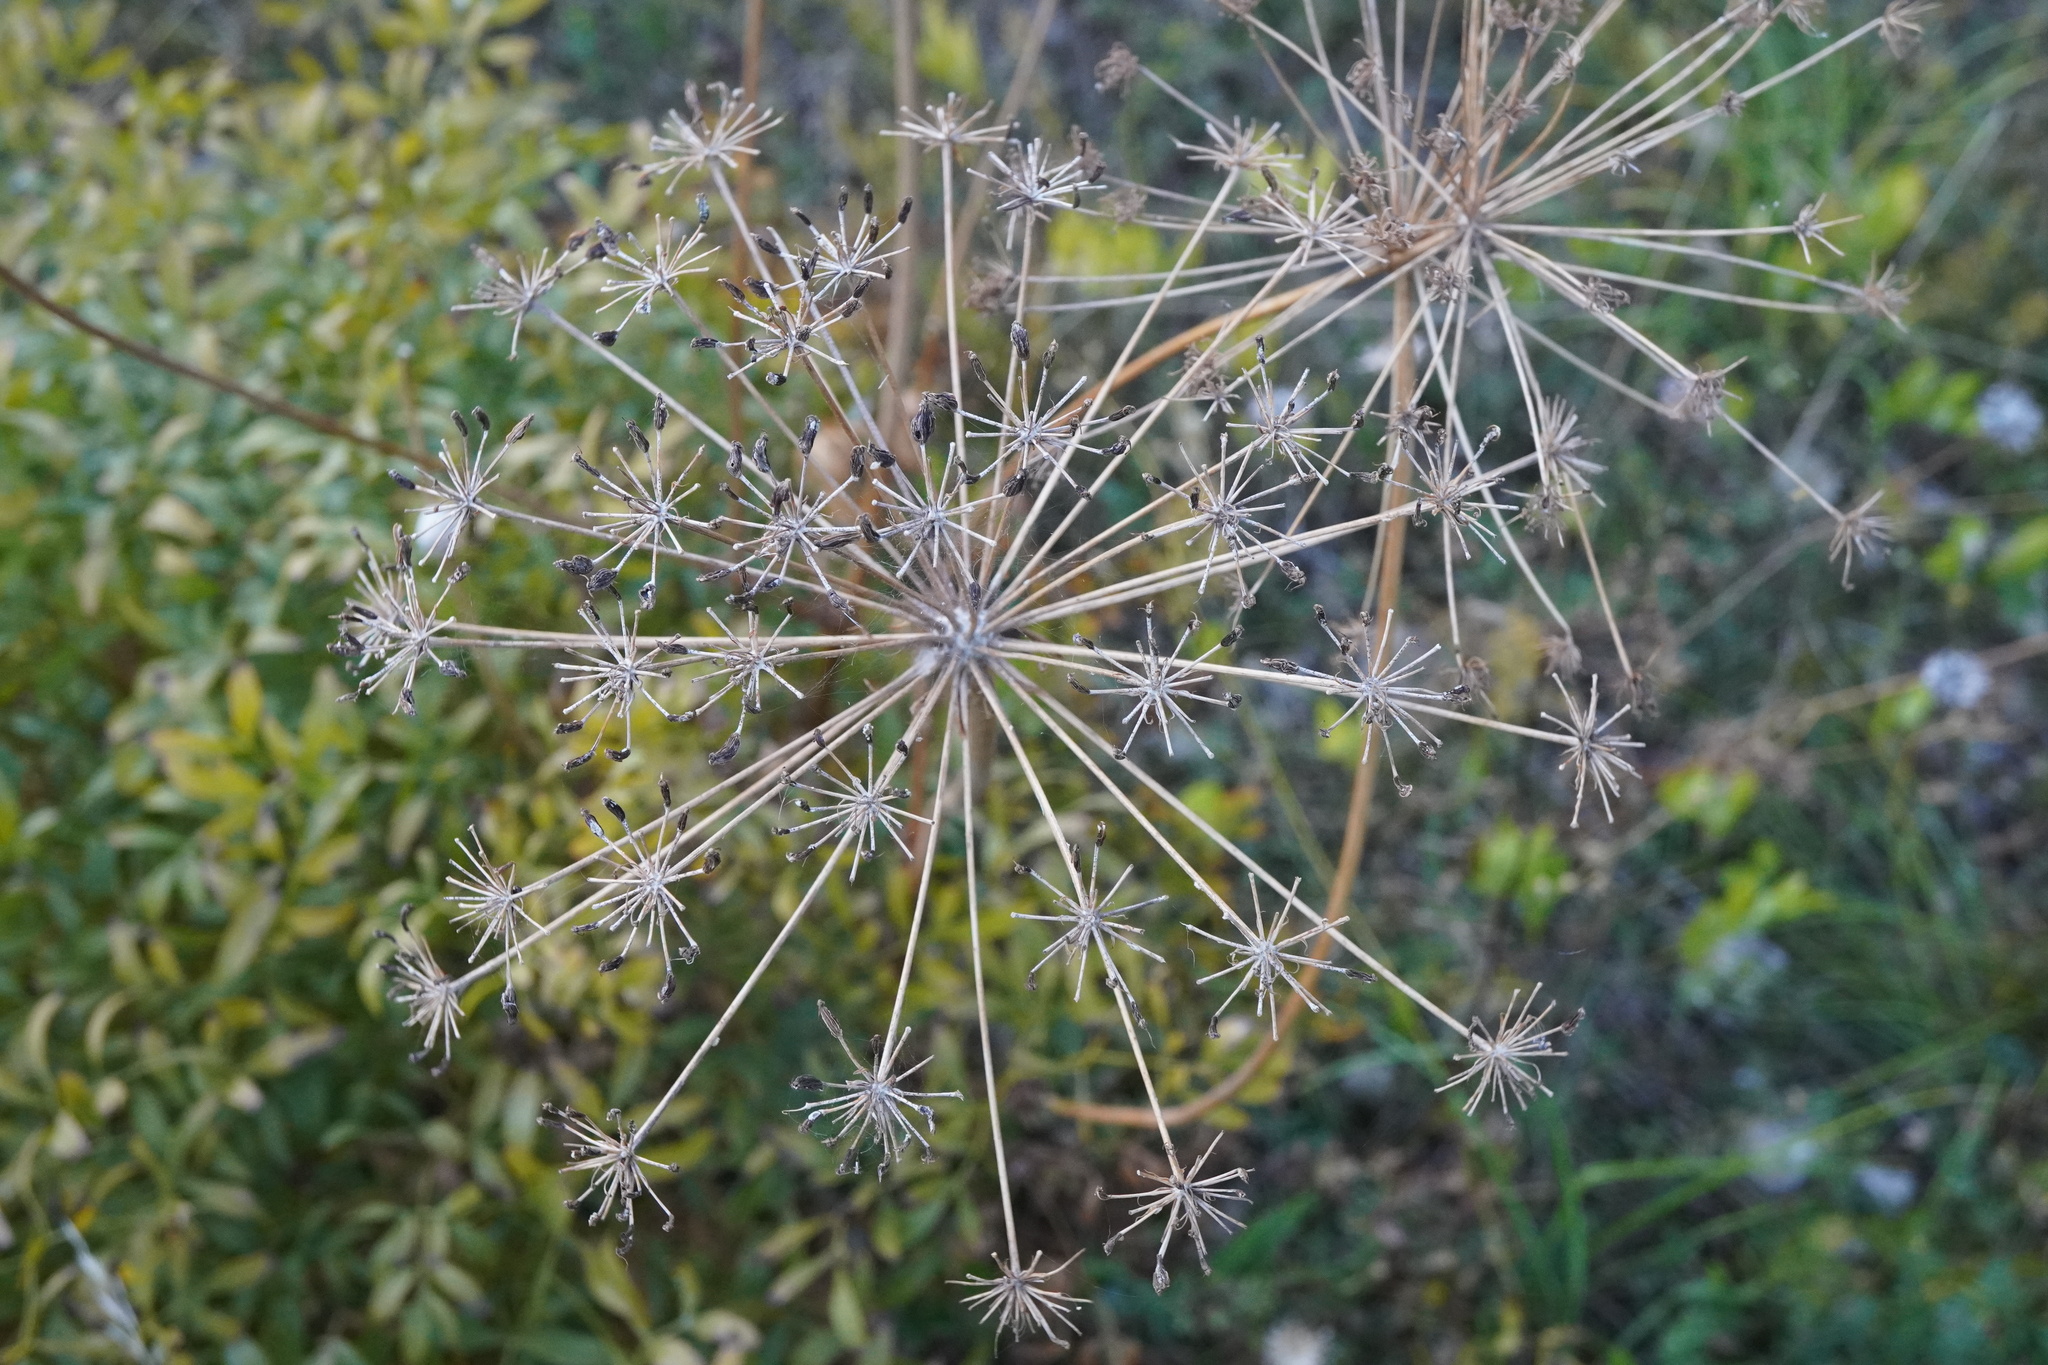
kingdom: Plantae
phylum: Tracheophyta
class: Magnoliopsida
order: Apiales
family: Apiaceae
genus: Siler
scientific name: Siler montanum
